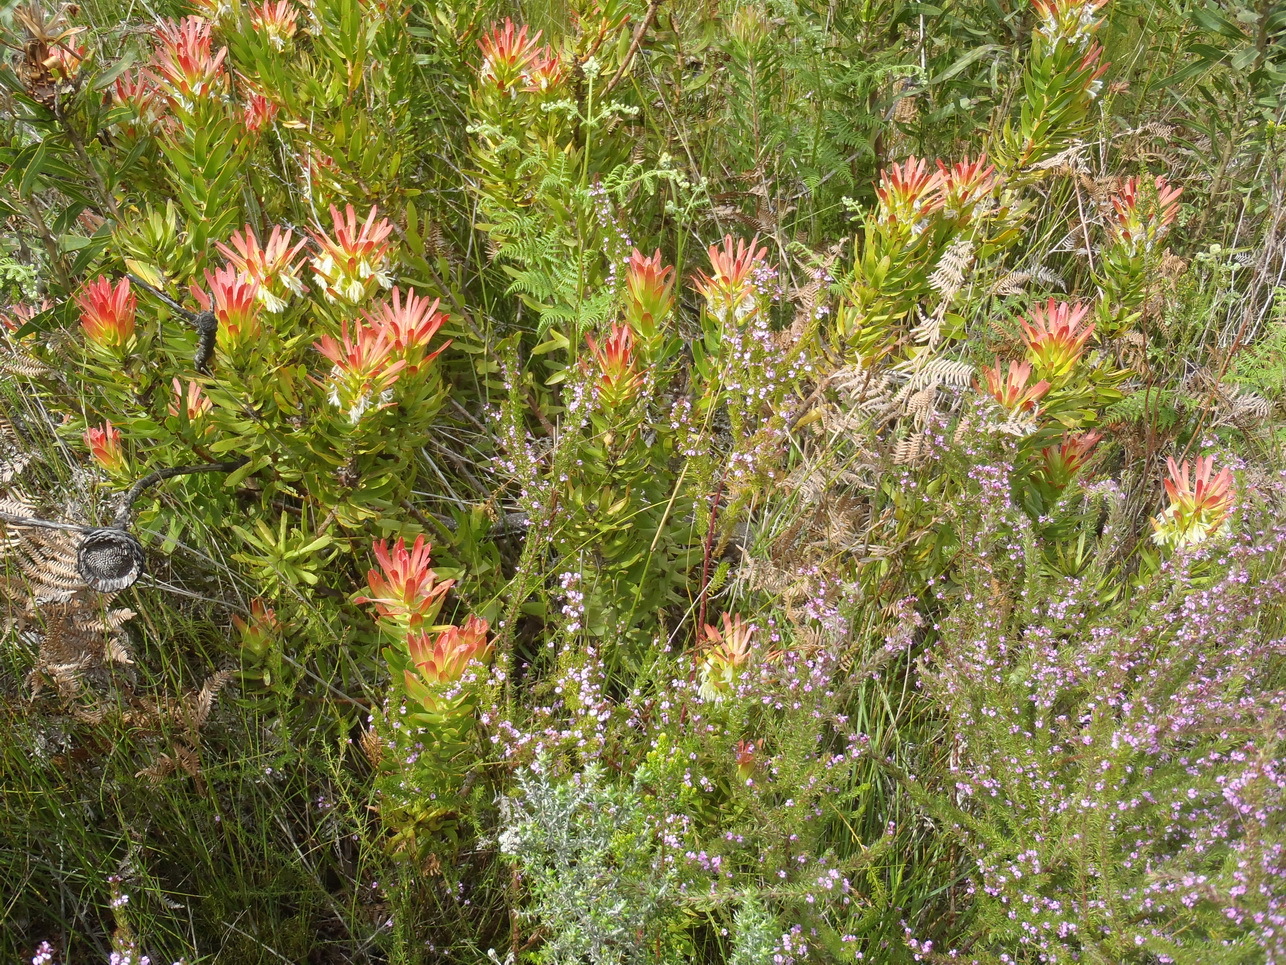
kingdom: Plantae
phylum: Tracheophyta
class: Magnoliopsida
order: Proteales
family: Proteaceae
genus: Mimetes
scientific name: Mimetes cucullatus
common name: Common pagoda
